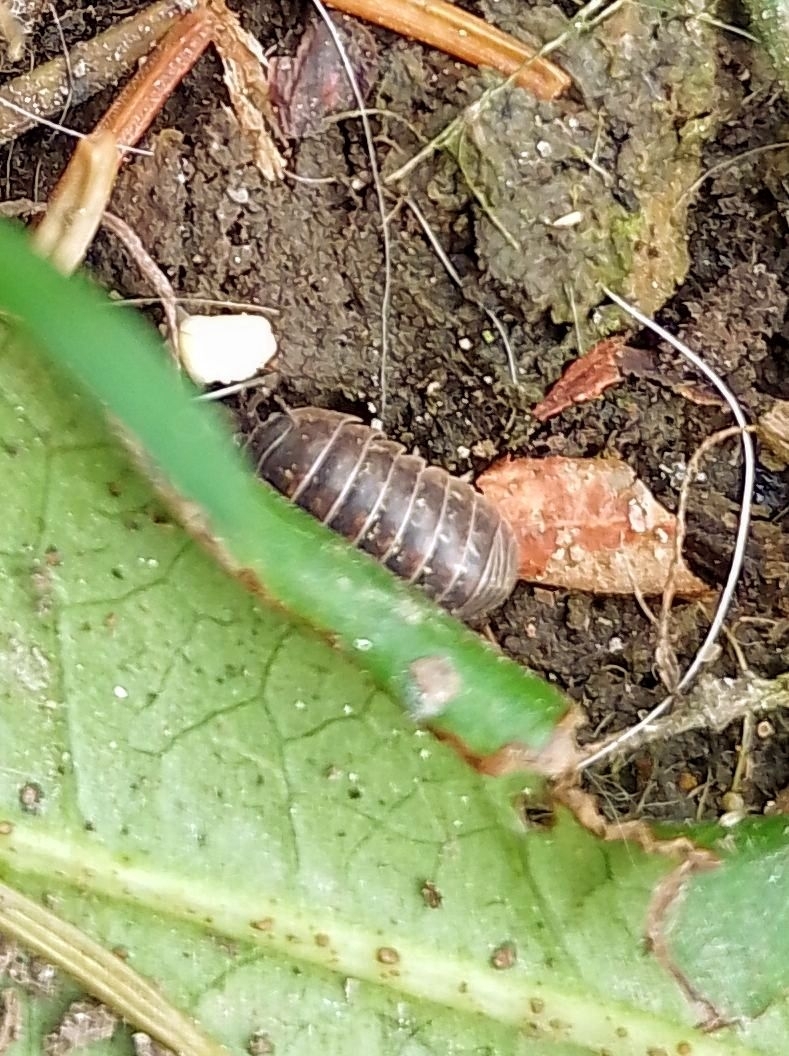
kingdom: Animalia
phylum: Arthropoda
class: Malacostraca
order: Isopoda
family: Armadillidiidae
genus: Armadillidium
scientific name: Armadillidium vulgare
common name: Common pill woodlouse
